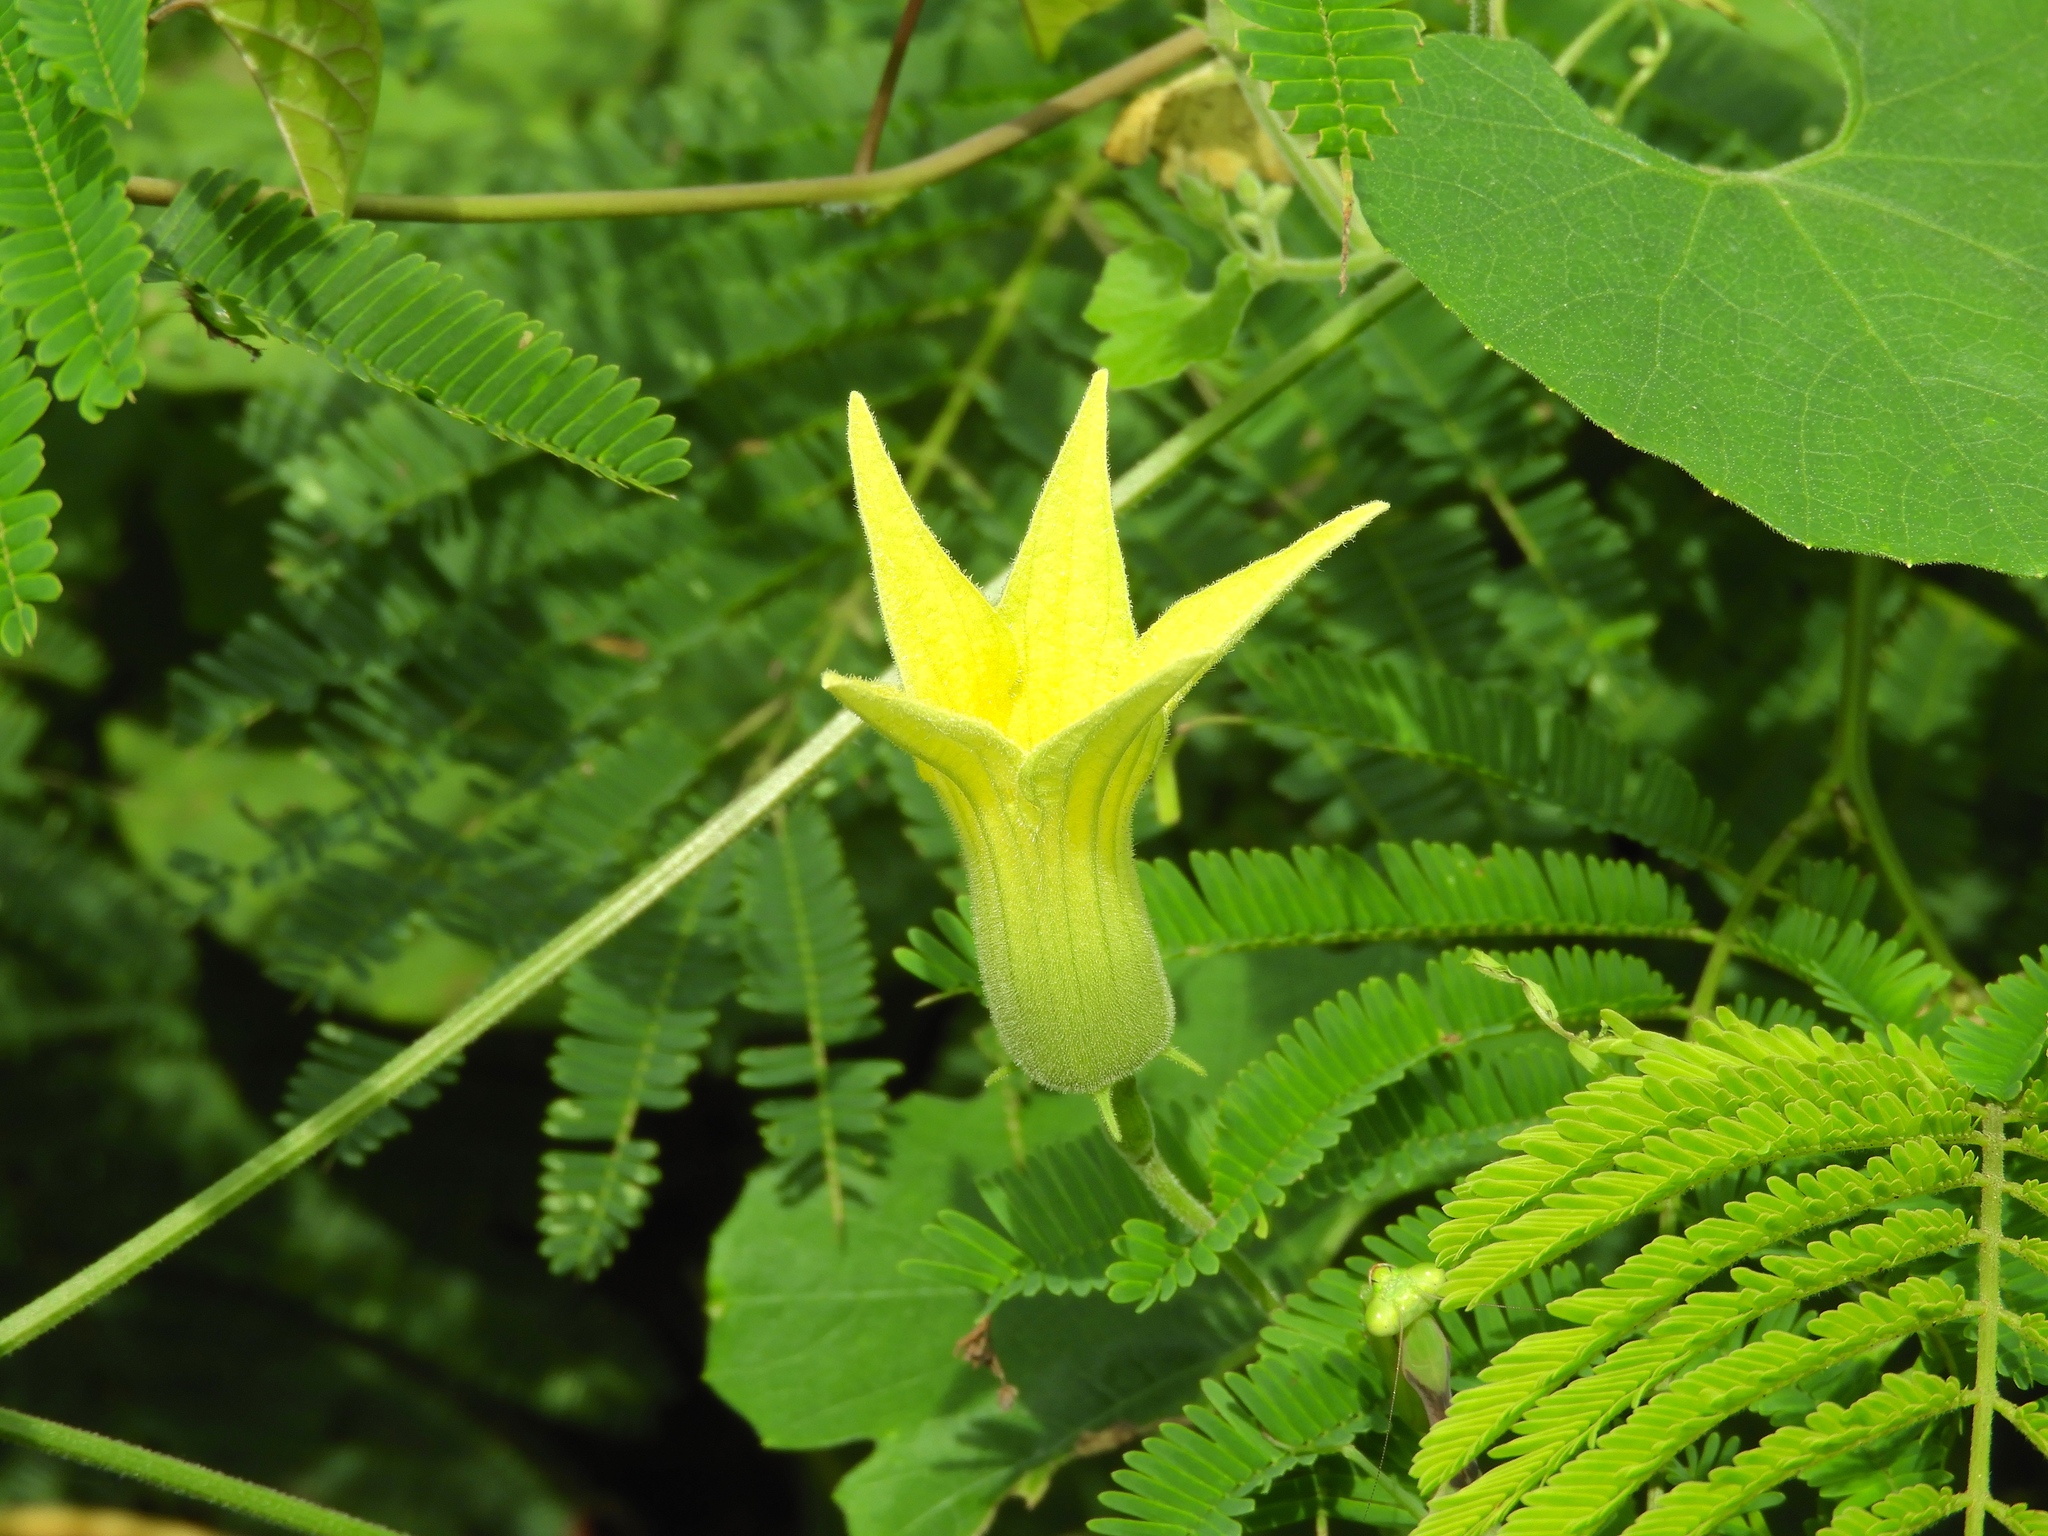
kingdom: Plantae
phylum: Tracheophyta
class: Magnoliopsida
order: Cucurbitales
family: Cucurbitaceae
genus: Schizocarpum
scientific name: Schizocarpum parviflorum
